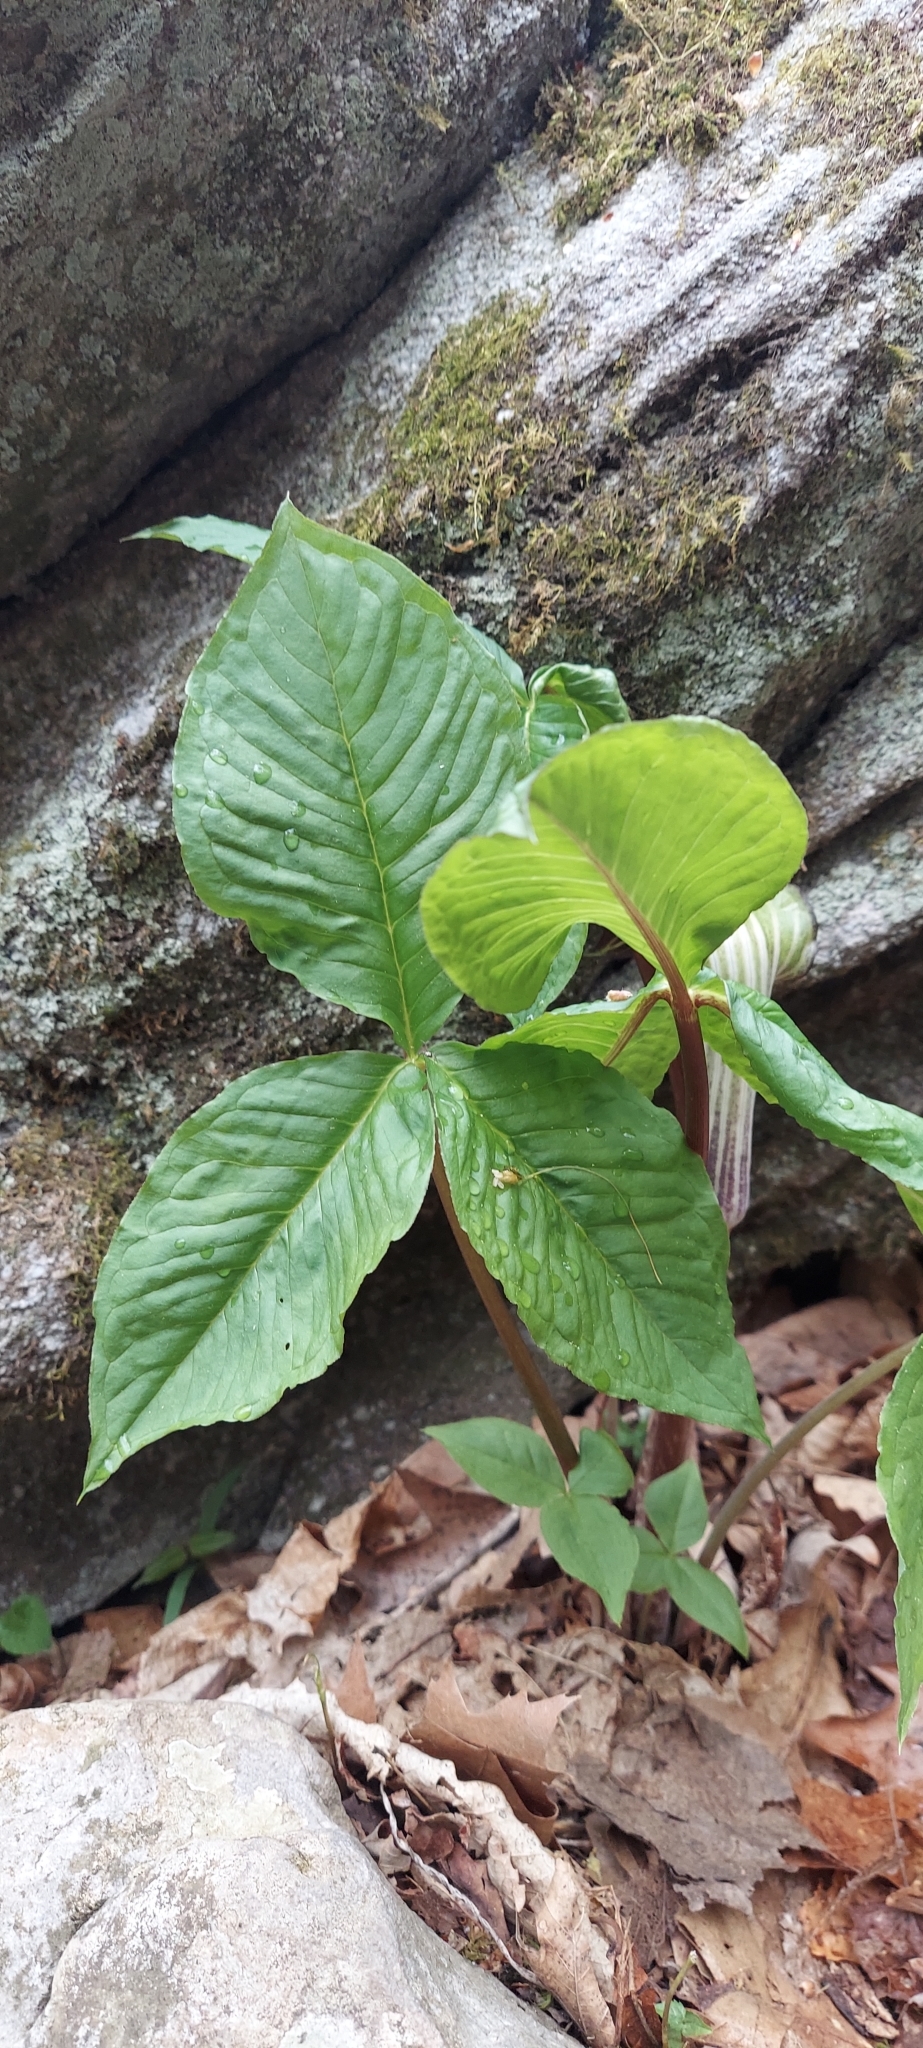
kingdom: Plantae
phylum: Tracheophyta
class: Liliopsida
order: Alismatales
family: Araceae
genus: Arisaema
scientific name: Arisaema triphyllum
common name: Jack-in-the-pulpit
